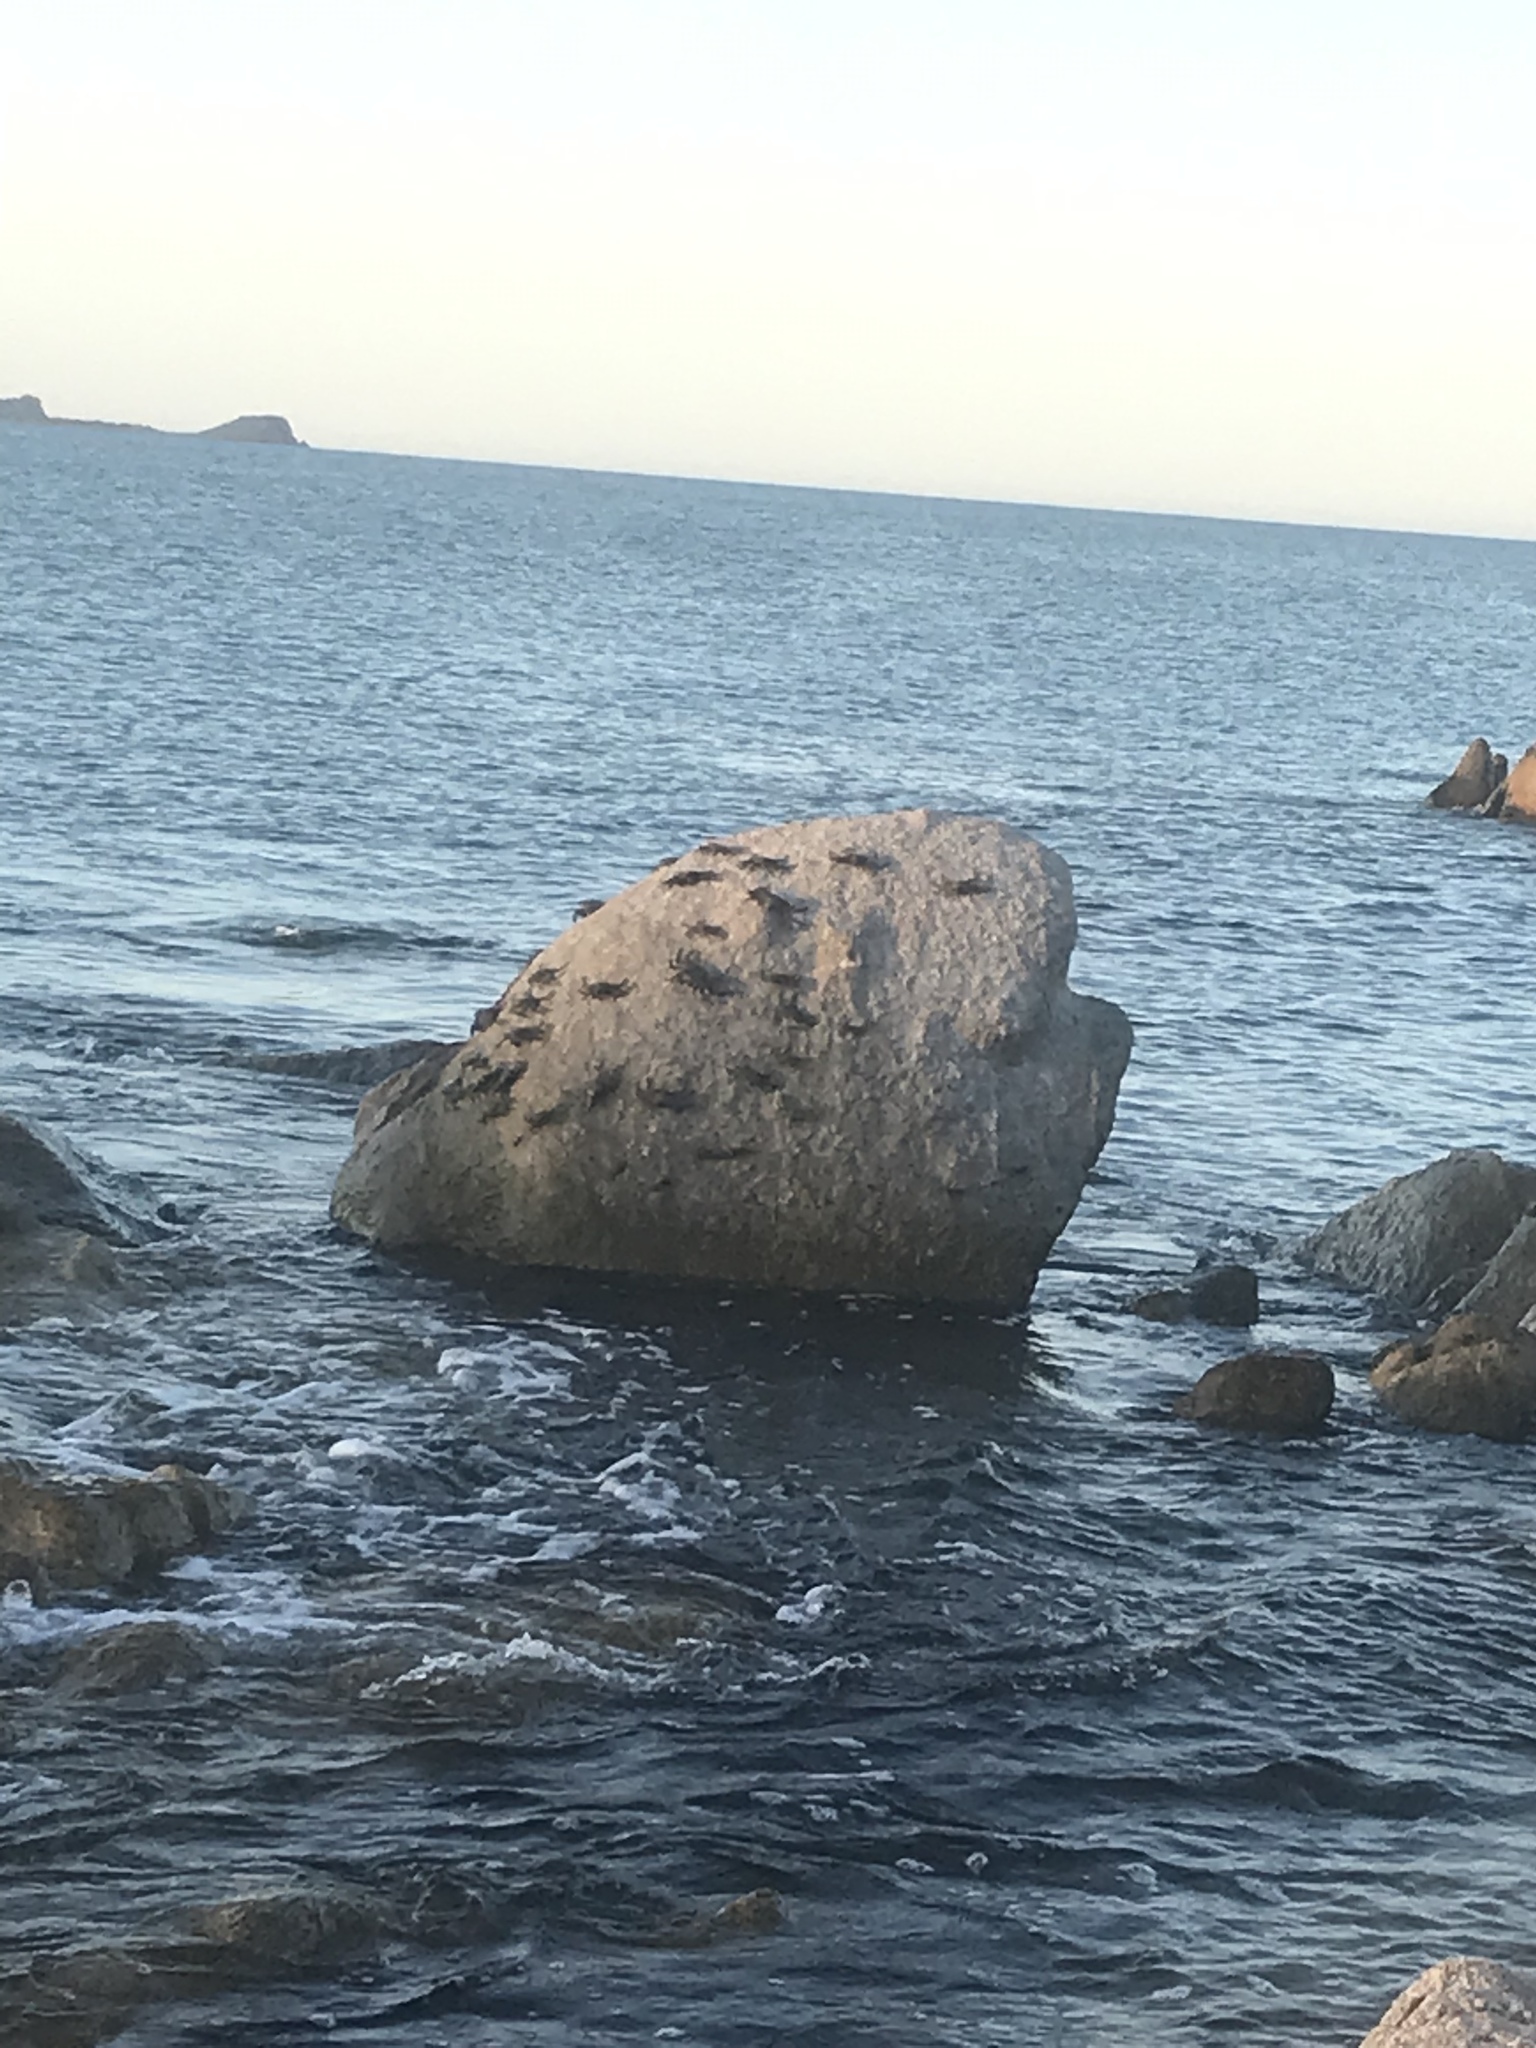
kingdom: Animalia
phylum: Arthropoda
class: Malacostraca
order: Decapoda
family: Grapsidae
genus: Grapsus
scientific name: Grapsus grapsus
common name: Sally lightfoot
